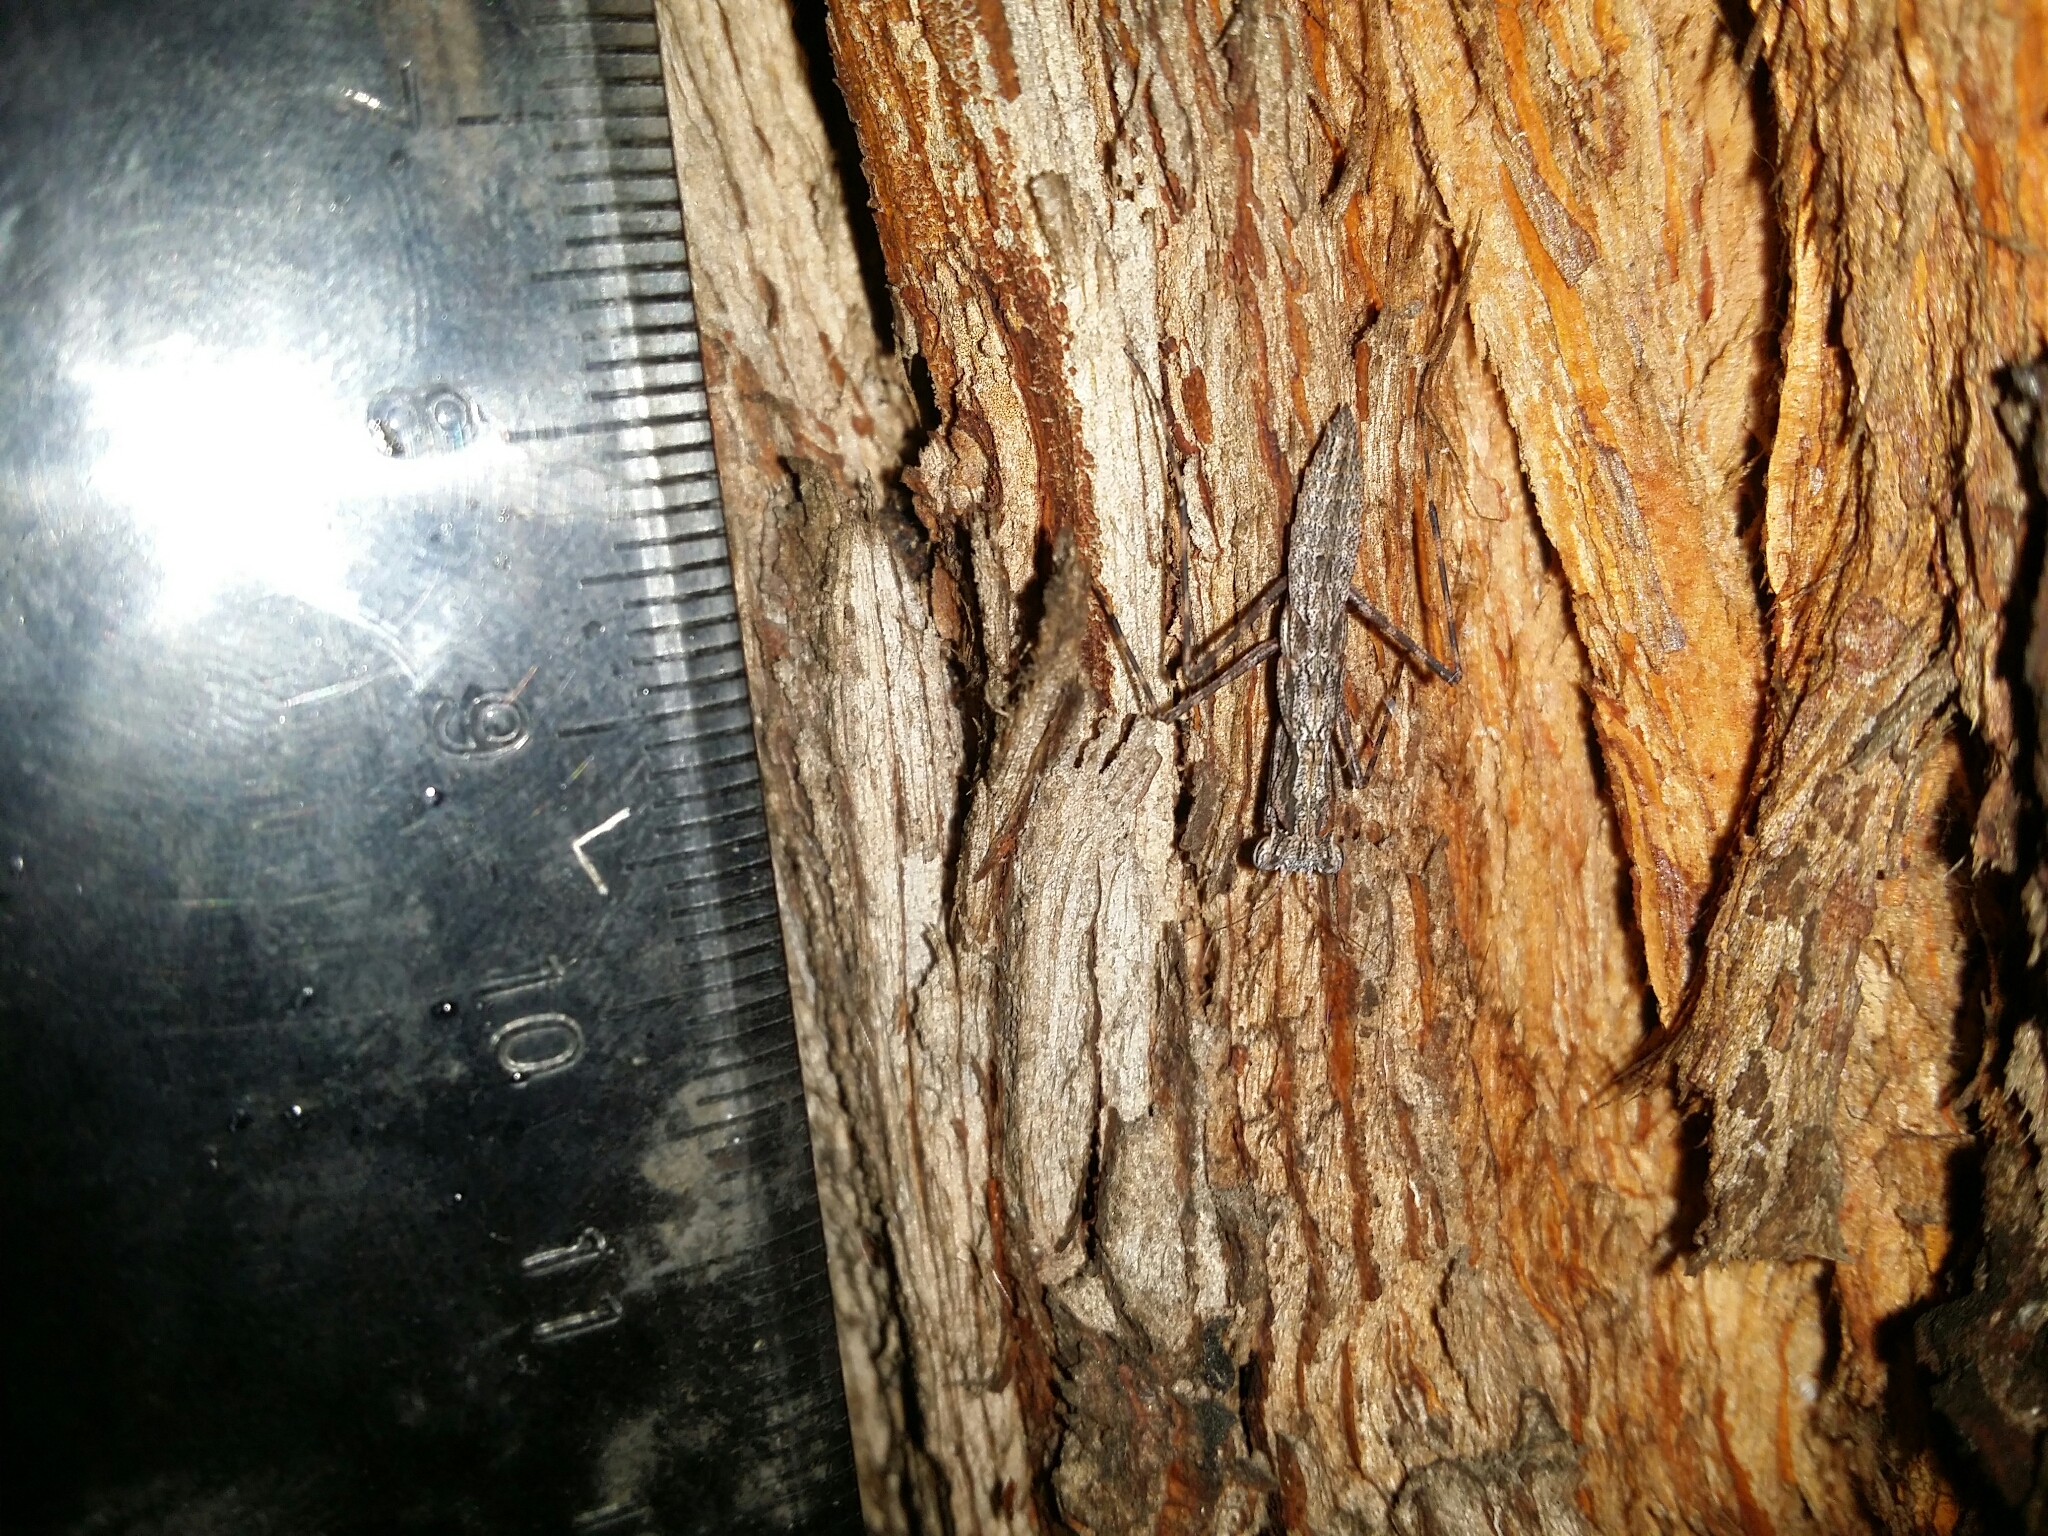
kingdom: Animalia
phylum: Arthropoda
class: Insecta
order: Mantodea
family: Nanomantidae
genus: Gyromantis
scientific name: Gyromantis kraussii
